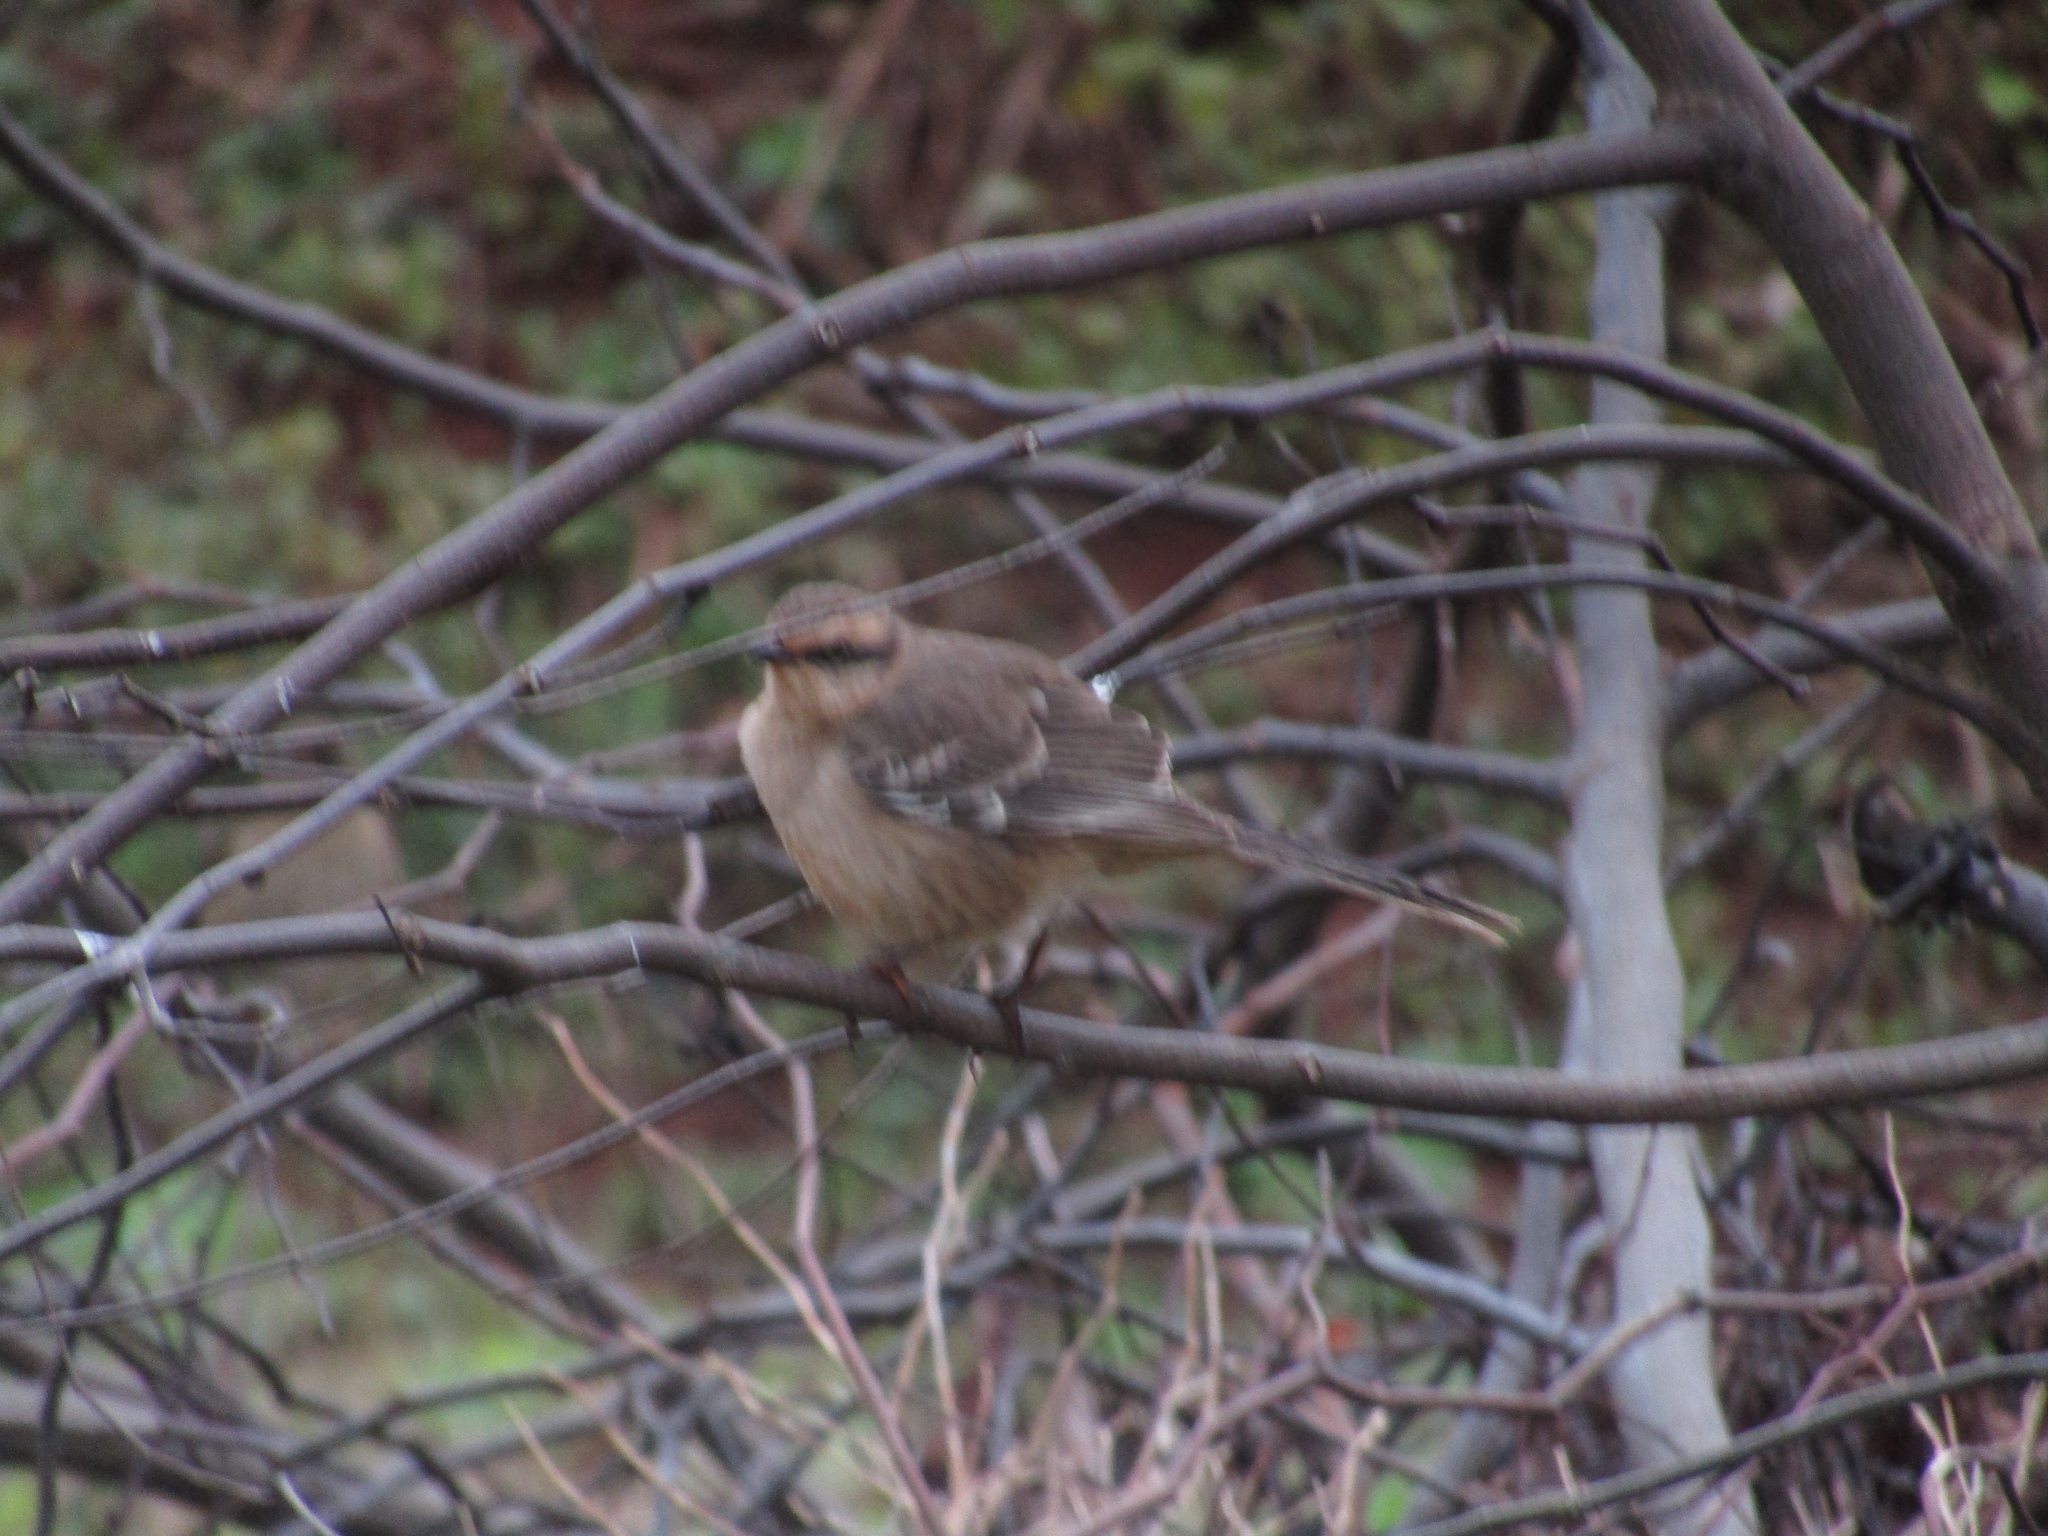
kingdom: Animalia
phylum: Chordata
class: Aves
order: Passeriformes
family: Mimidae
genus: Mimus
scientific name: Mimus saturninus
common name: Chalk-browed mockingbird
